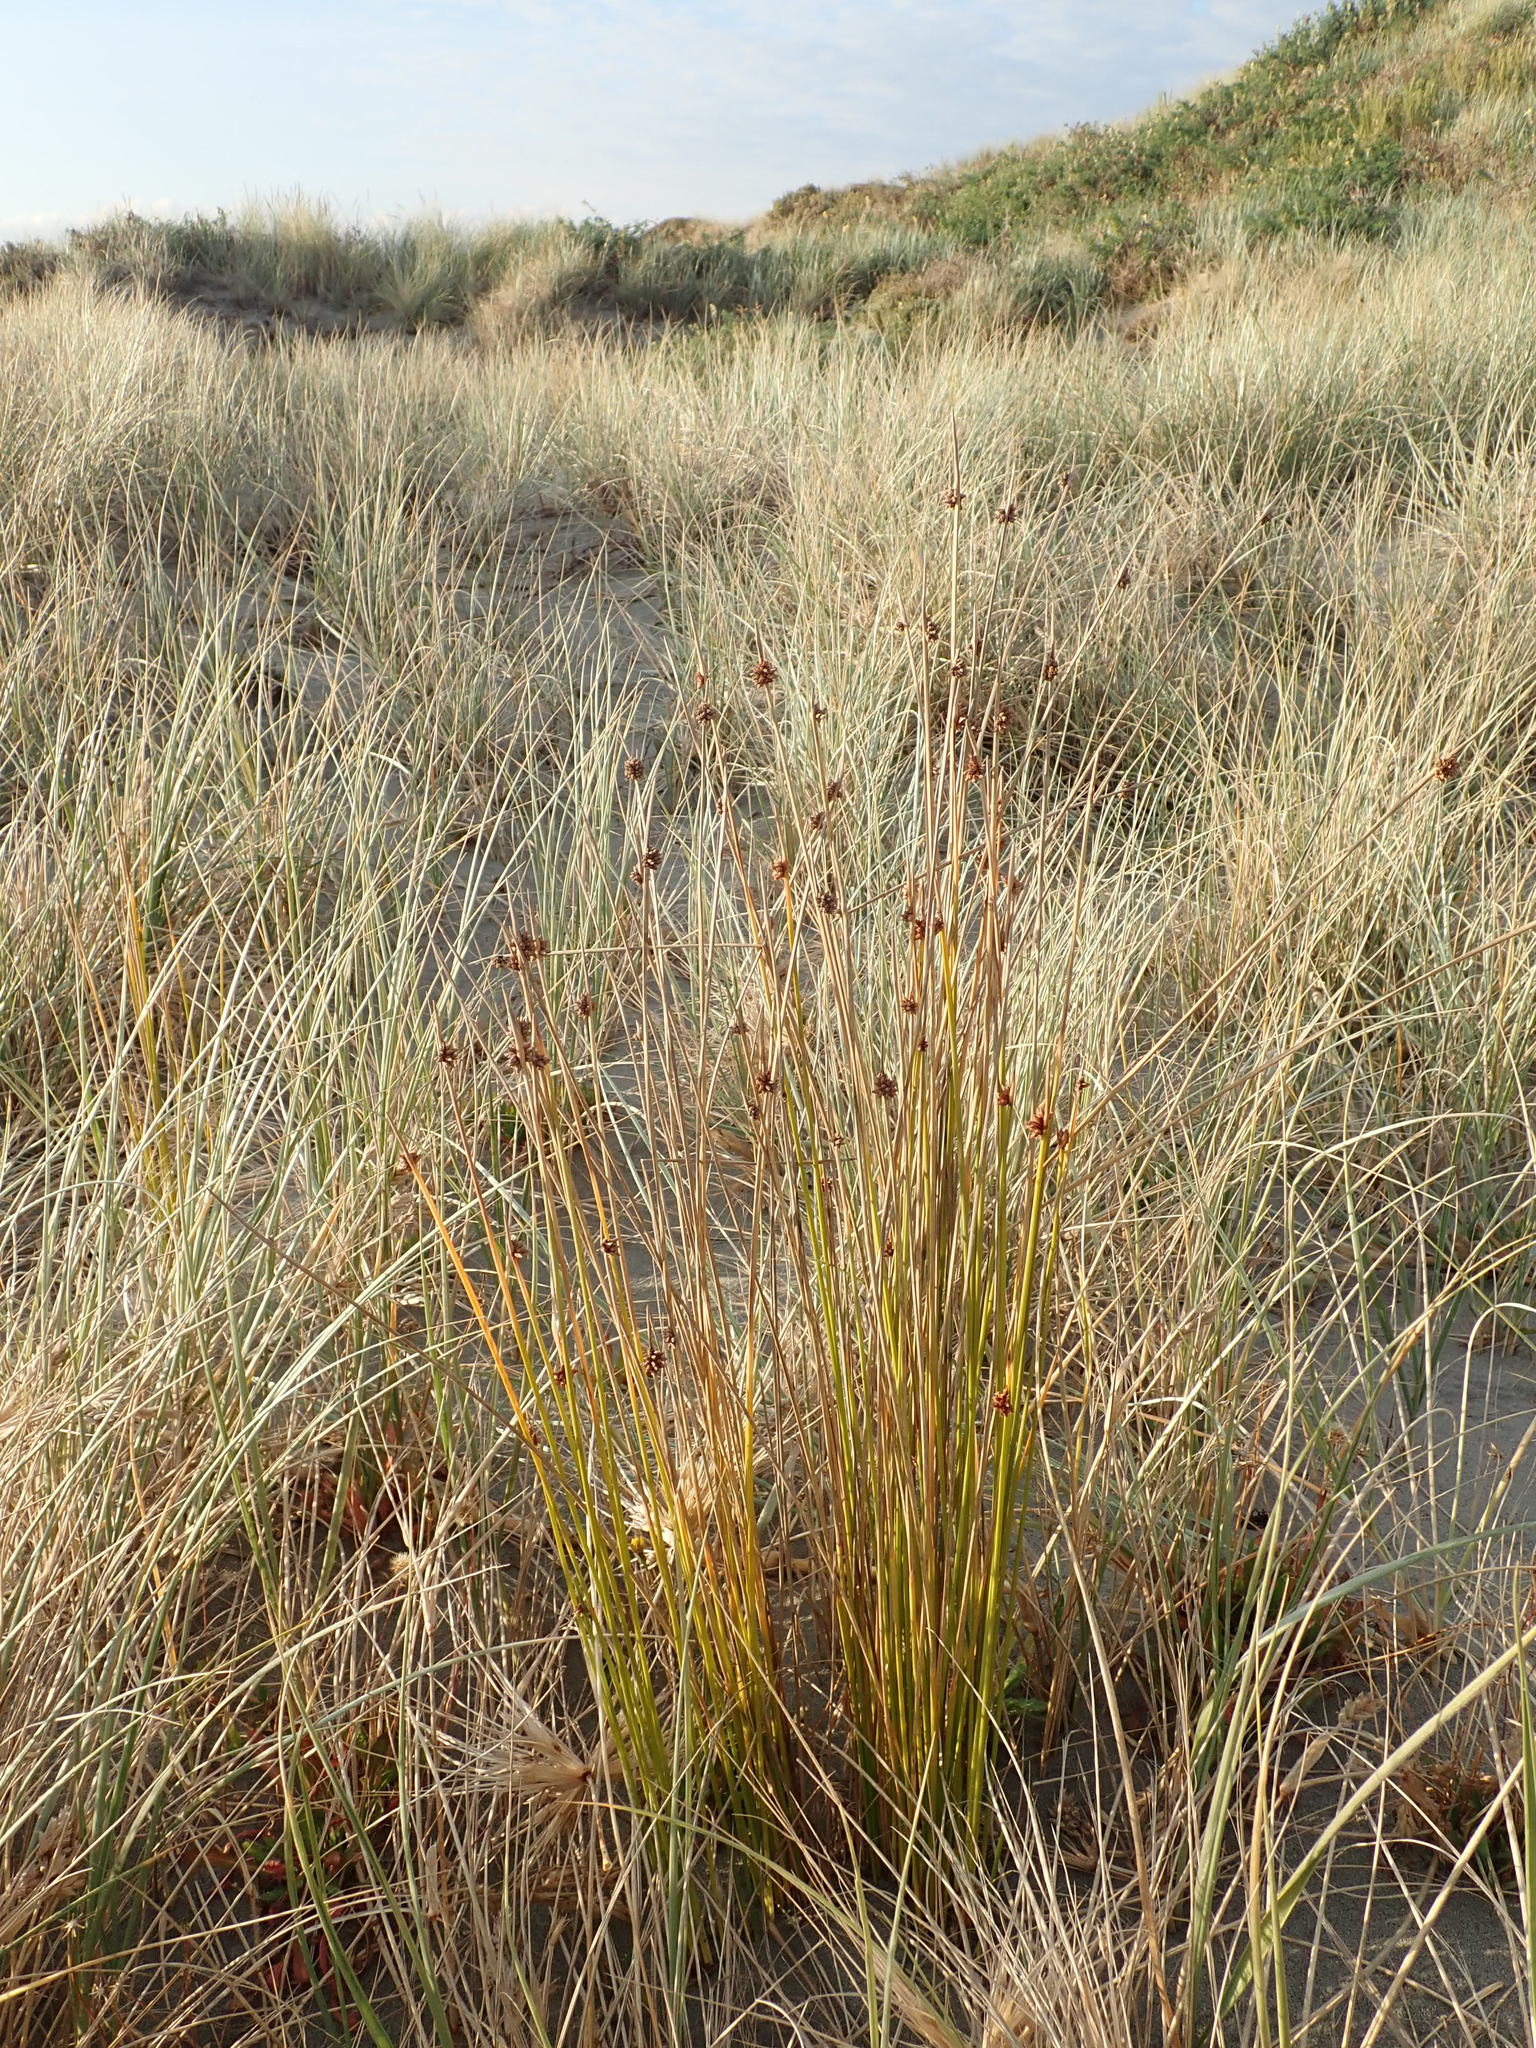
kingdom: Plantae
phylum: Tracheophyta
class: Liliopsida
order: Poales
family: Cyperaceae
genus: Ficinia
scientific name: Ficinia nodosa
